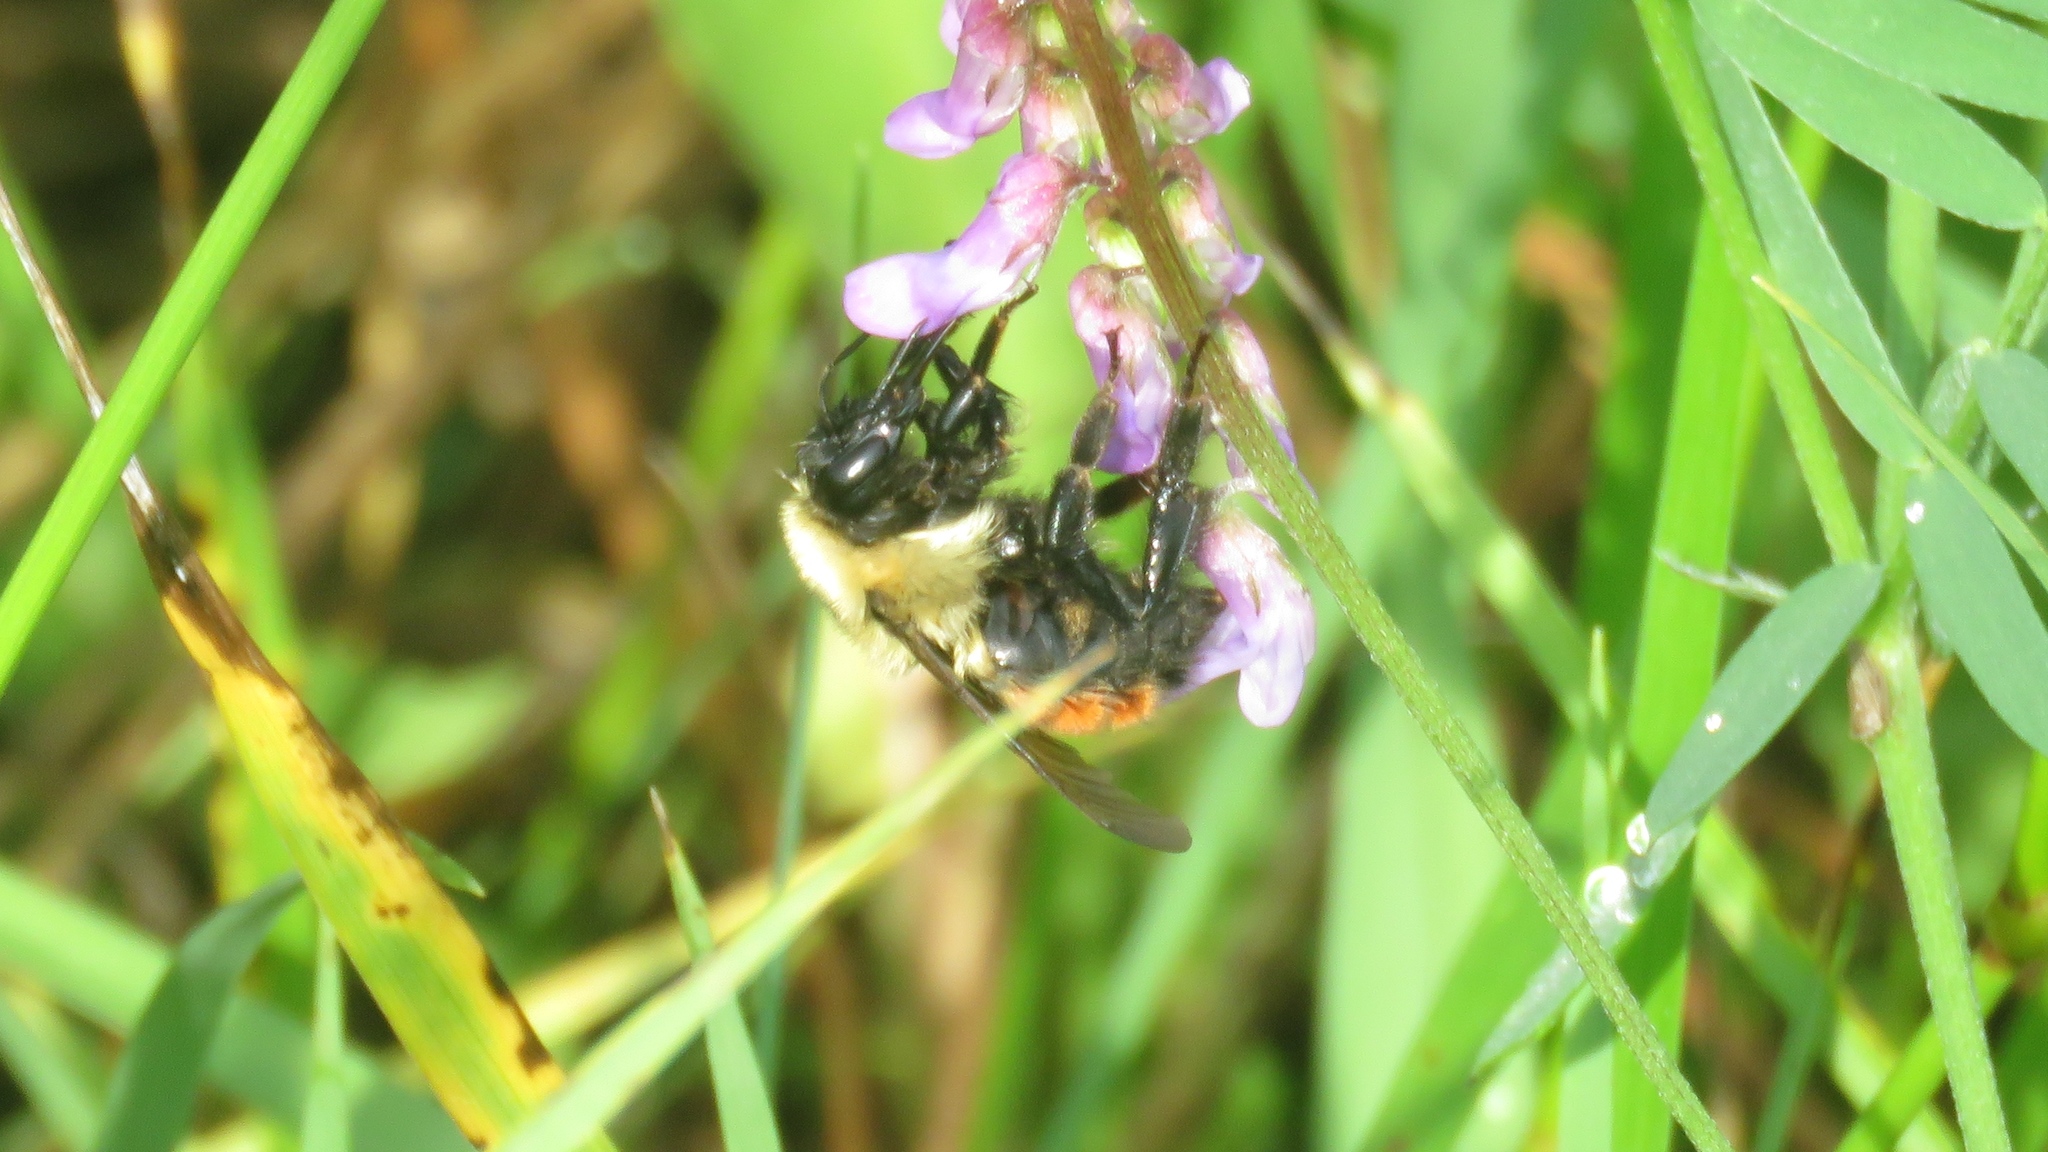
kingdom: Animalia
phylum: Arthropoda
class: Insecta
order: Hymenoptera
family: Apidae
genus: Bombus
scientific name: Bombus rufocinctus
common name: Red-belted bumble bee
